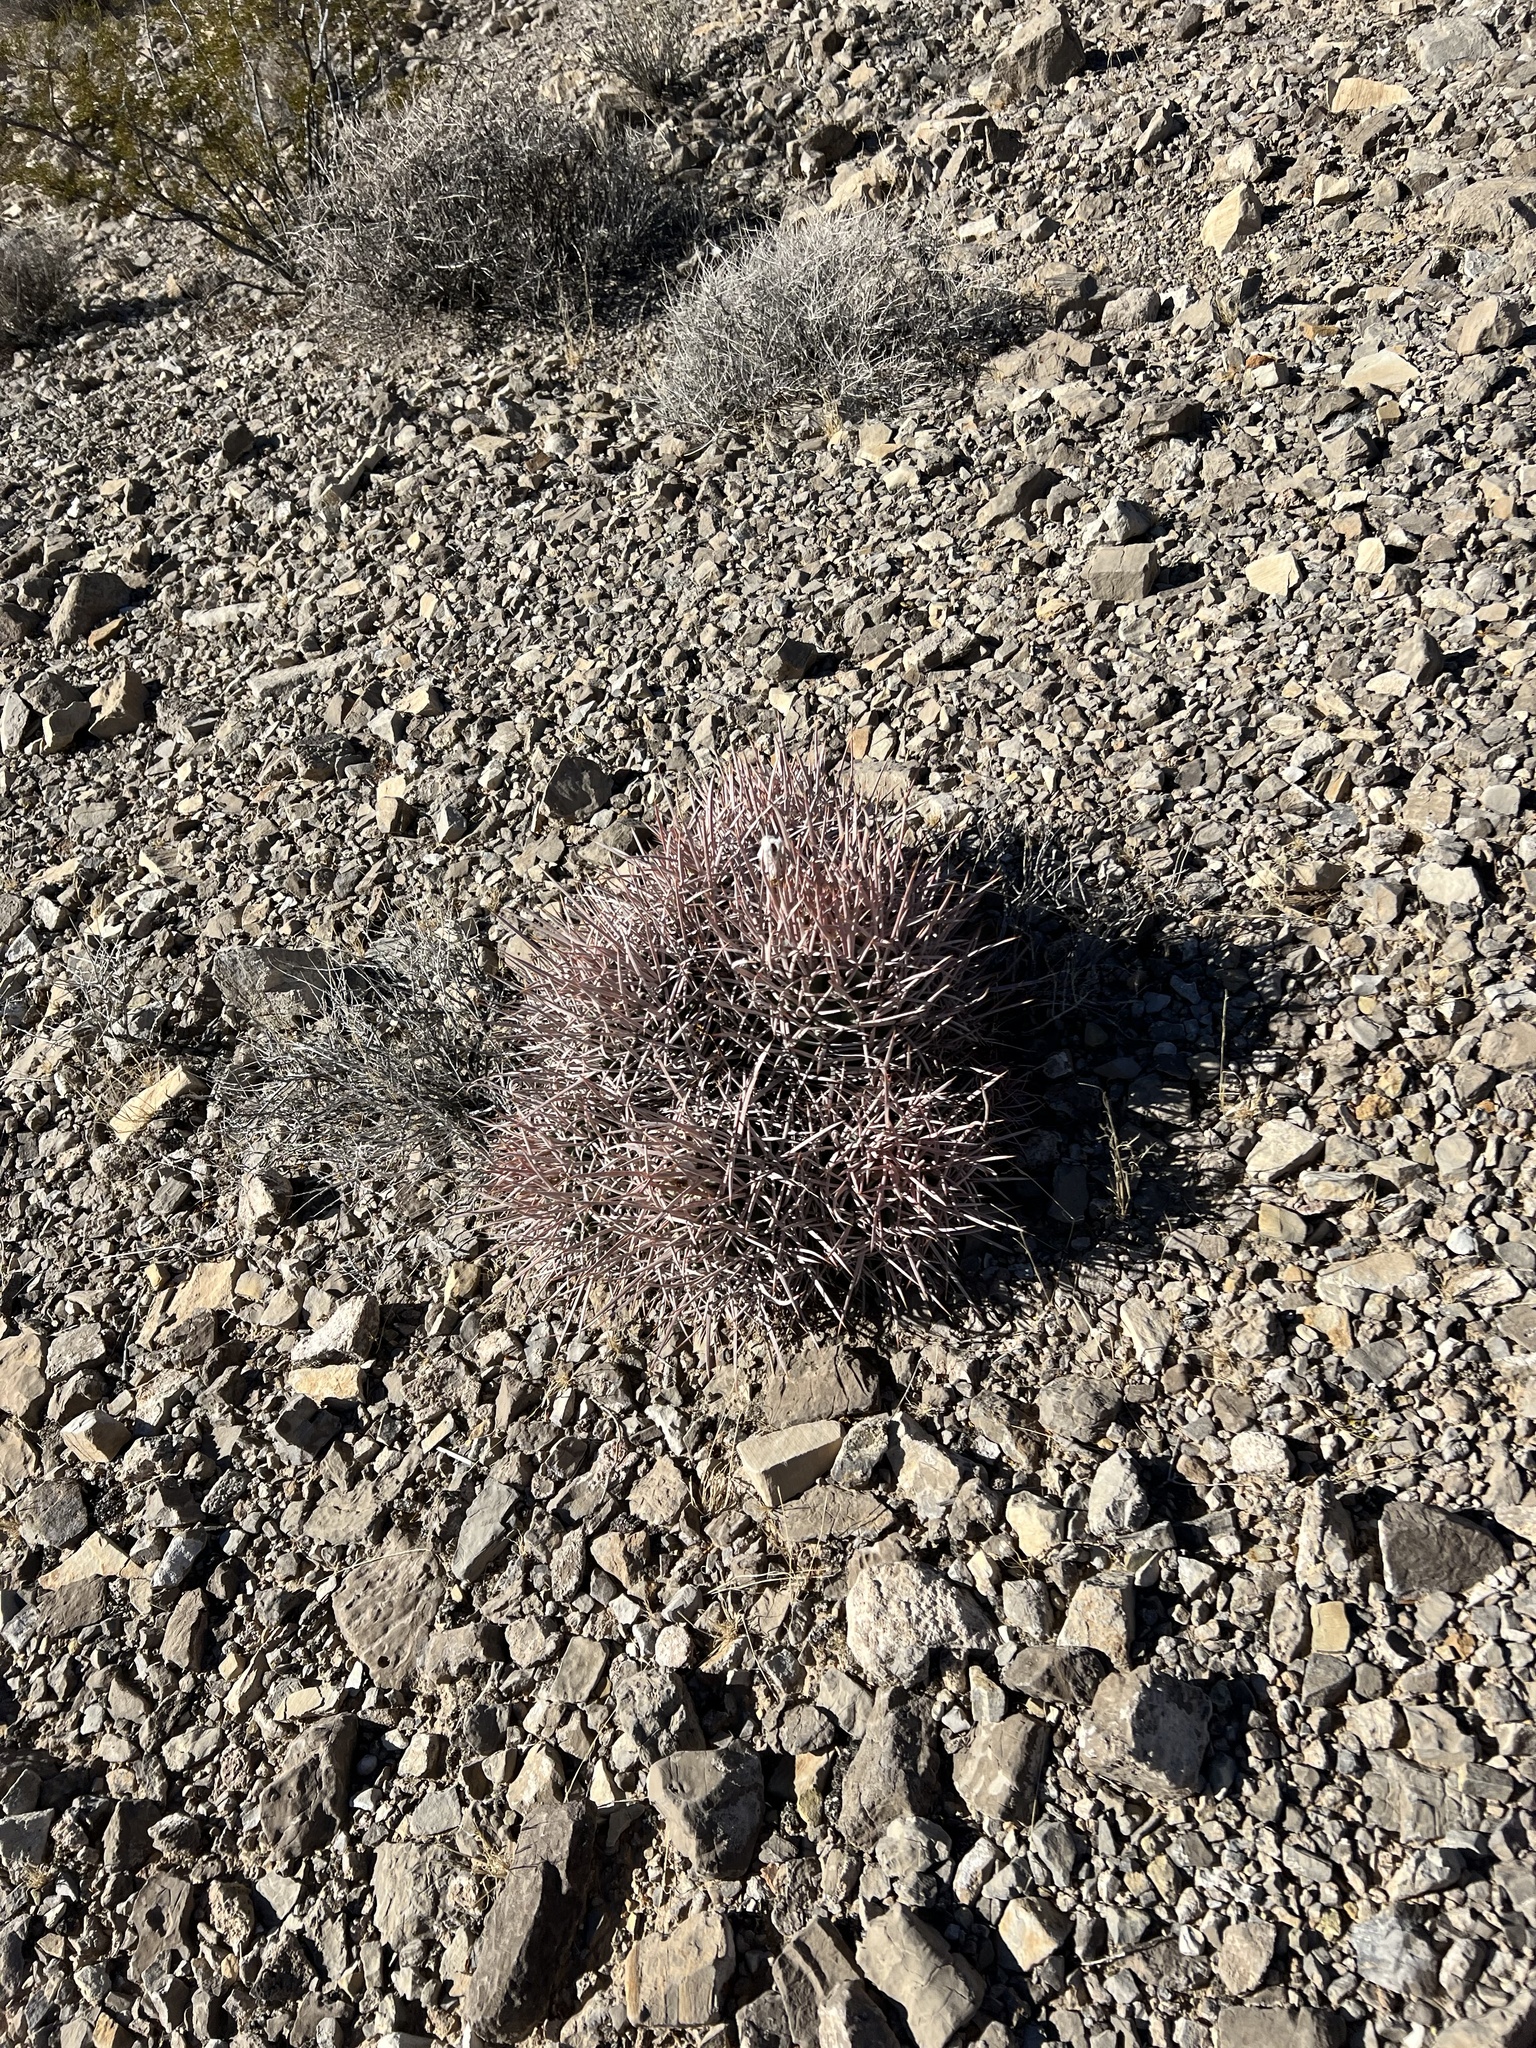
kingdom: Plantae
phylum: Tracheophyta
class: Magnoliopsida
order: Caryophyllales
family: Cactaceae
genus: Echinocactus
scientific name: Echinocactus polycephalus
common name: Cottontop cactus
